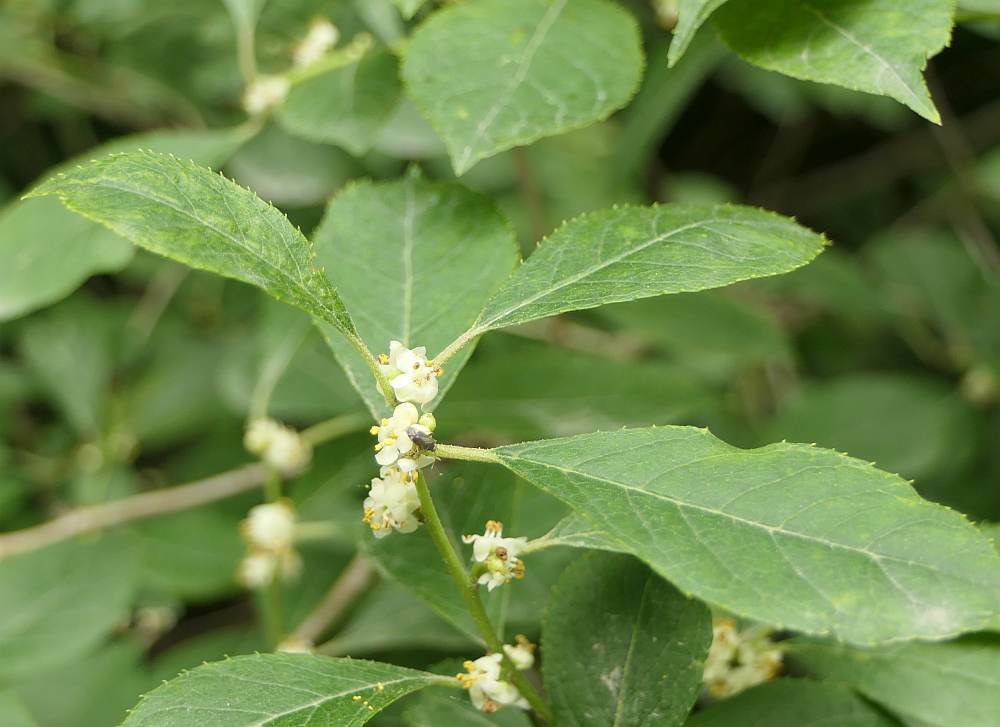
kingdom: Plantae
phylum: Tracheophyta
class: Magnoliopsida
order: Aquifoliales
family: Aquifoliaceae
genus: Ilex
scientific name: Ilex verticillata
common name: Virginia winterberry
